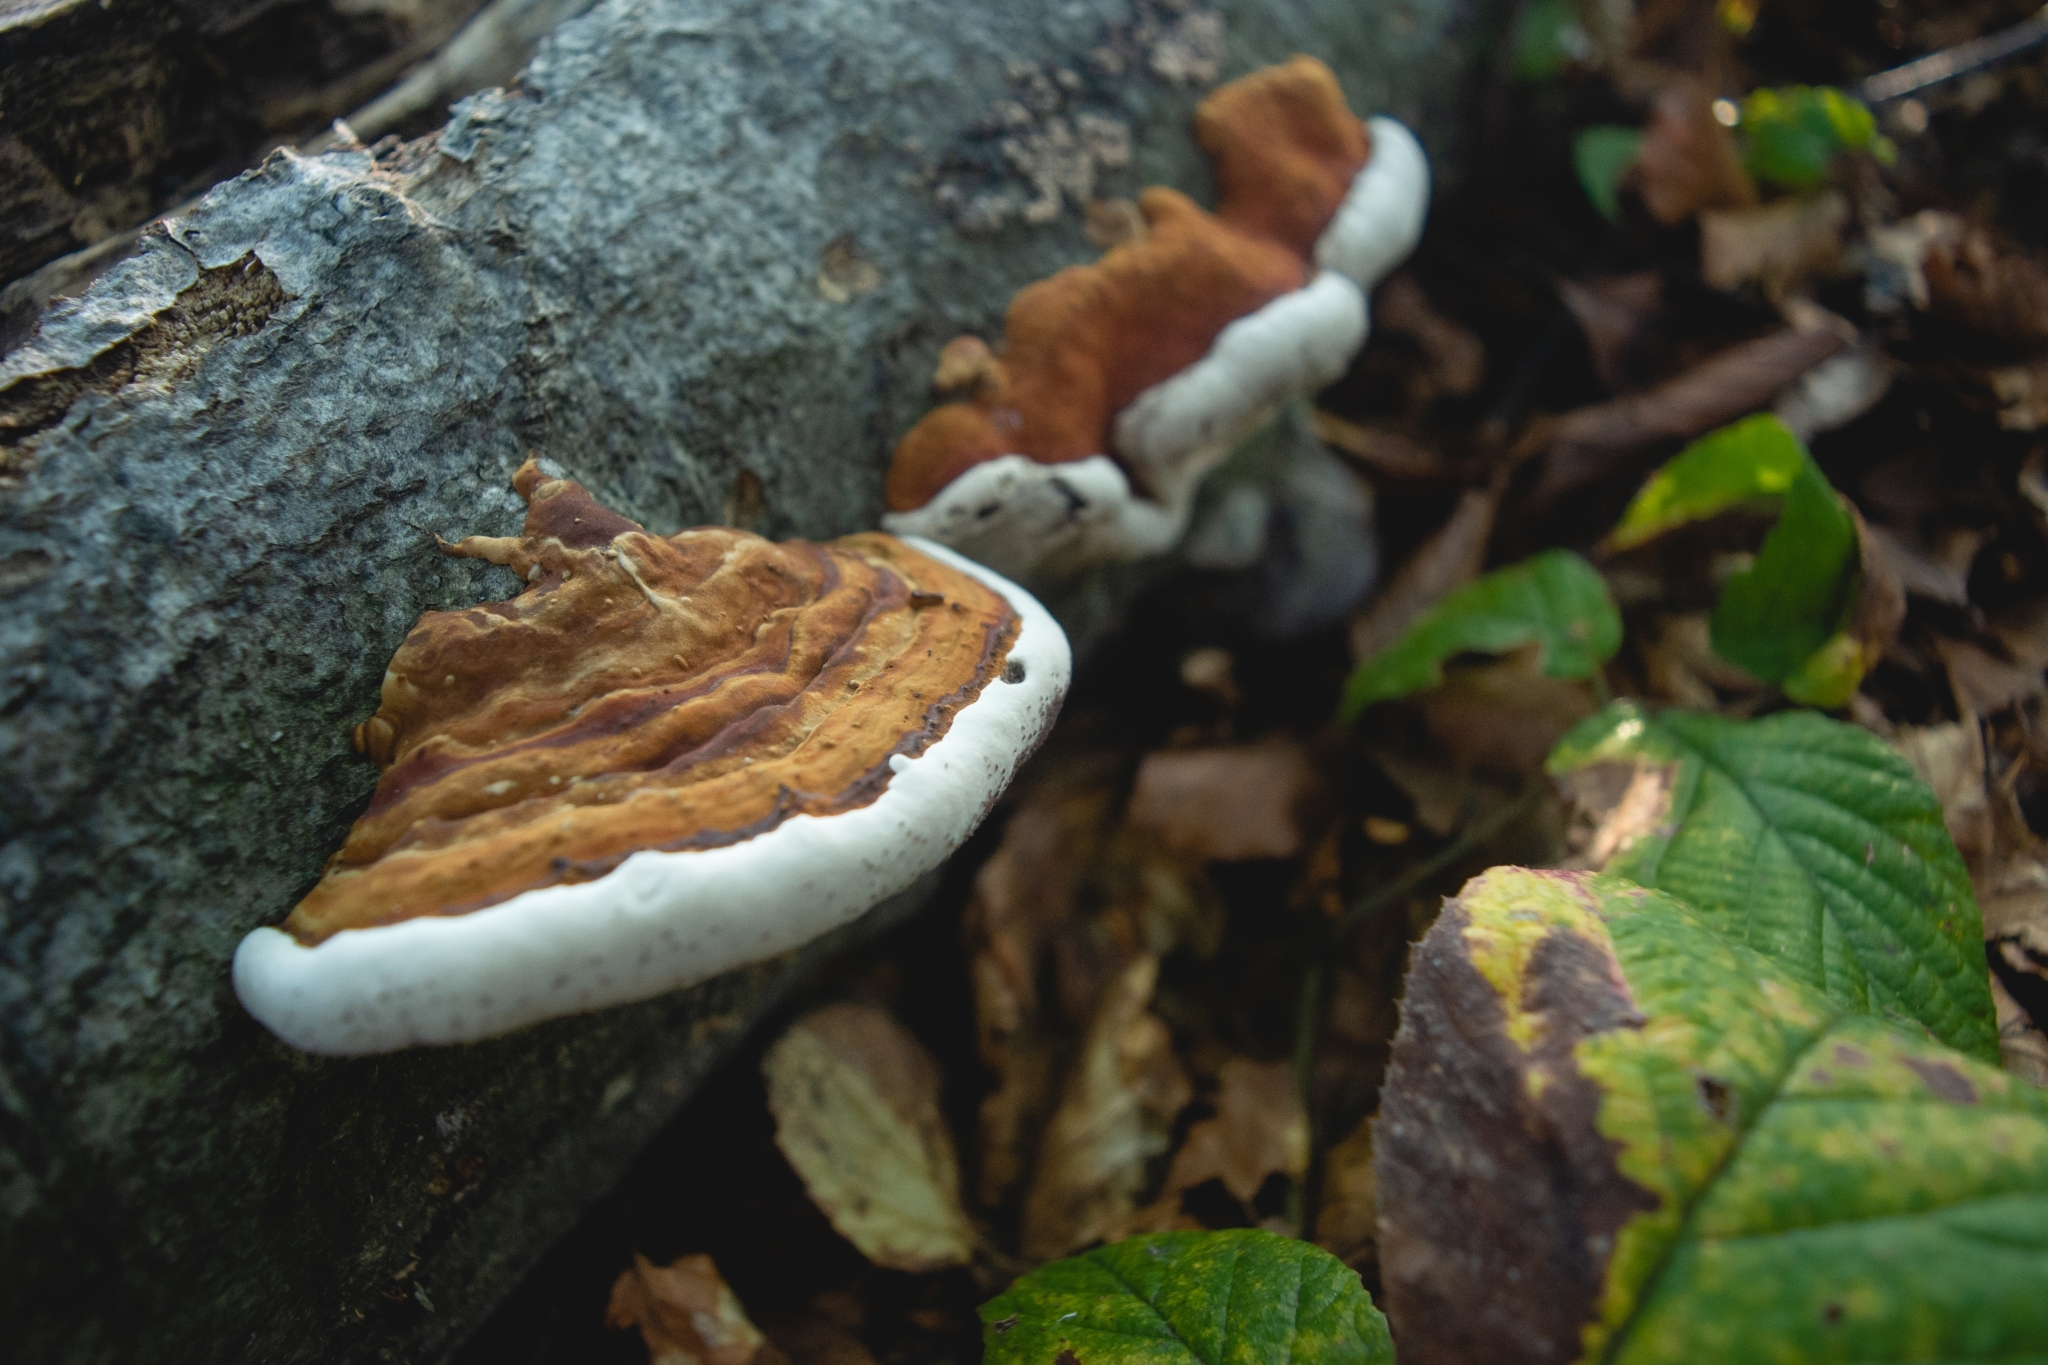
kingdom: Fungi
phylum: Basidiomycota
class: Agaricomycetes
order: Polyporales
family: Polyporaceae
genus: Ganoderma
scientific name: Ganoderma applanatum
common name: Artist's bracket
